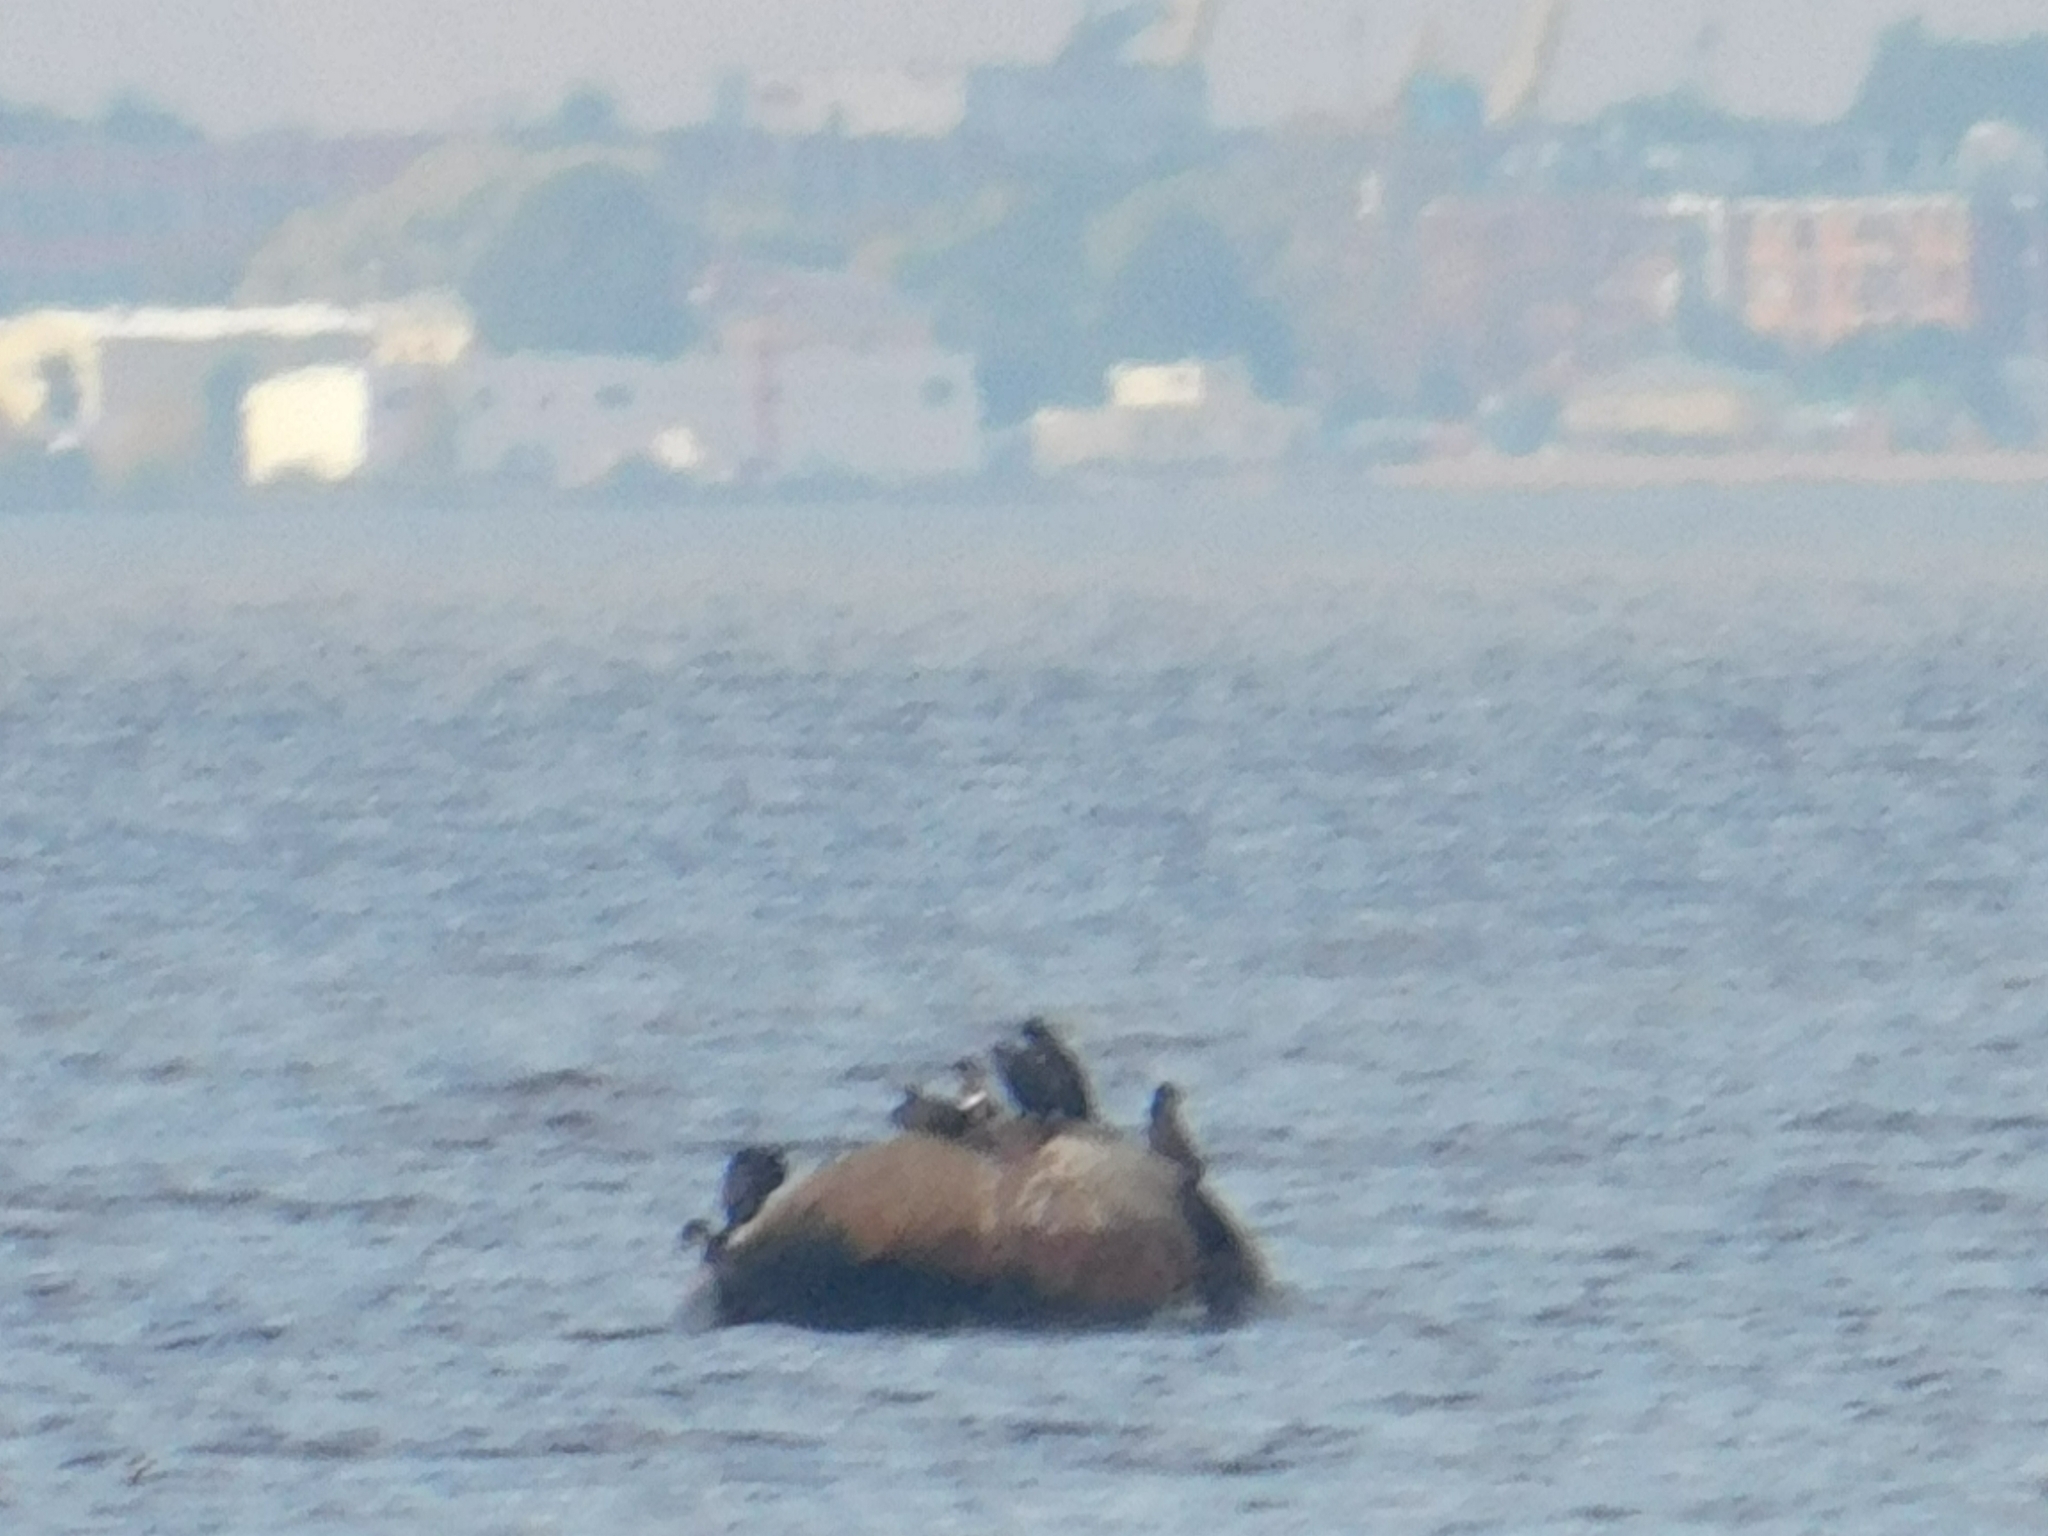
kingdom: Animalia
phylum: Chordata
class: Aves
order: Suliformes
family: Phalacrocoracidae
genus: Phalacrocorax
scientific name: Phalacrocorax carbo
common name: Great cormorant
